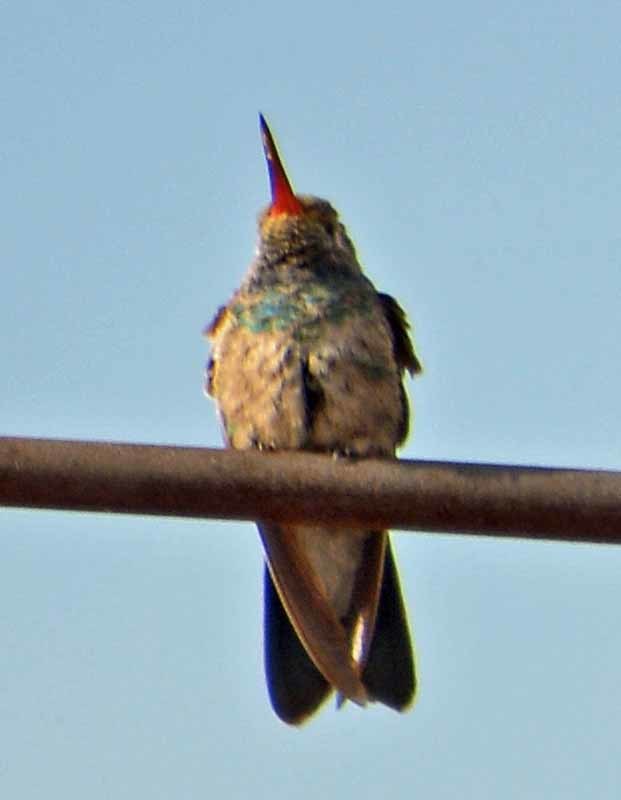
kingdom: Animalia
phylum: Chordata
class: Aves
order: Apodiformes
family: Trochilidae
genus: Cynanthus
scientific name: Cynanthus latirostris
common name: Broad-billed hummingbird
